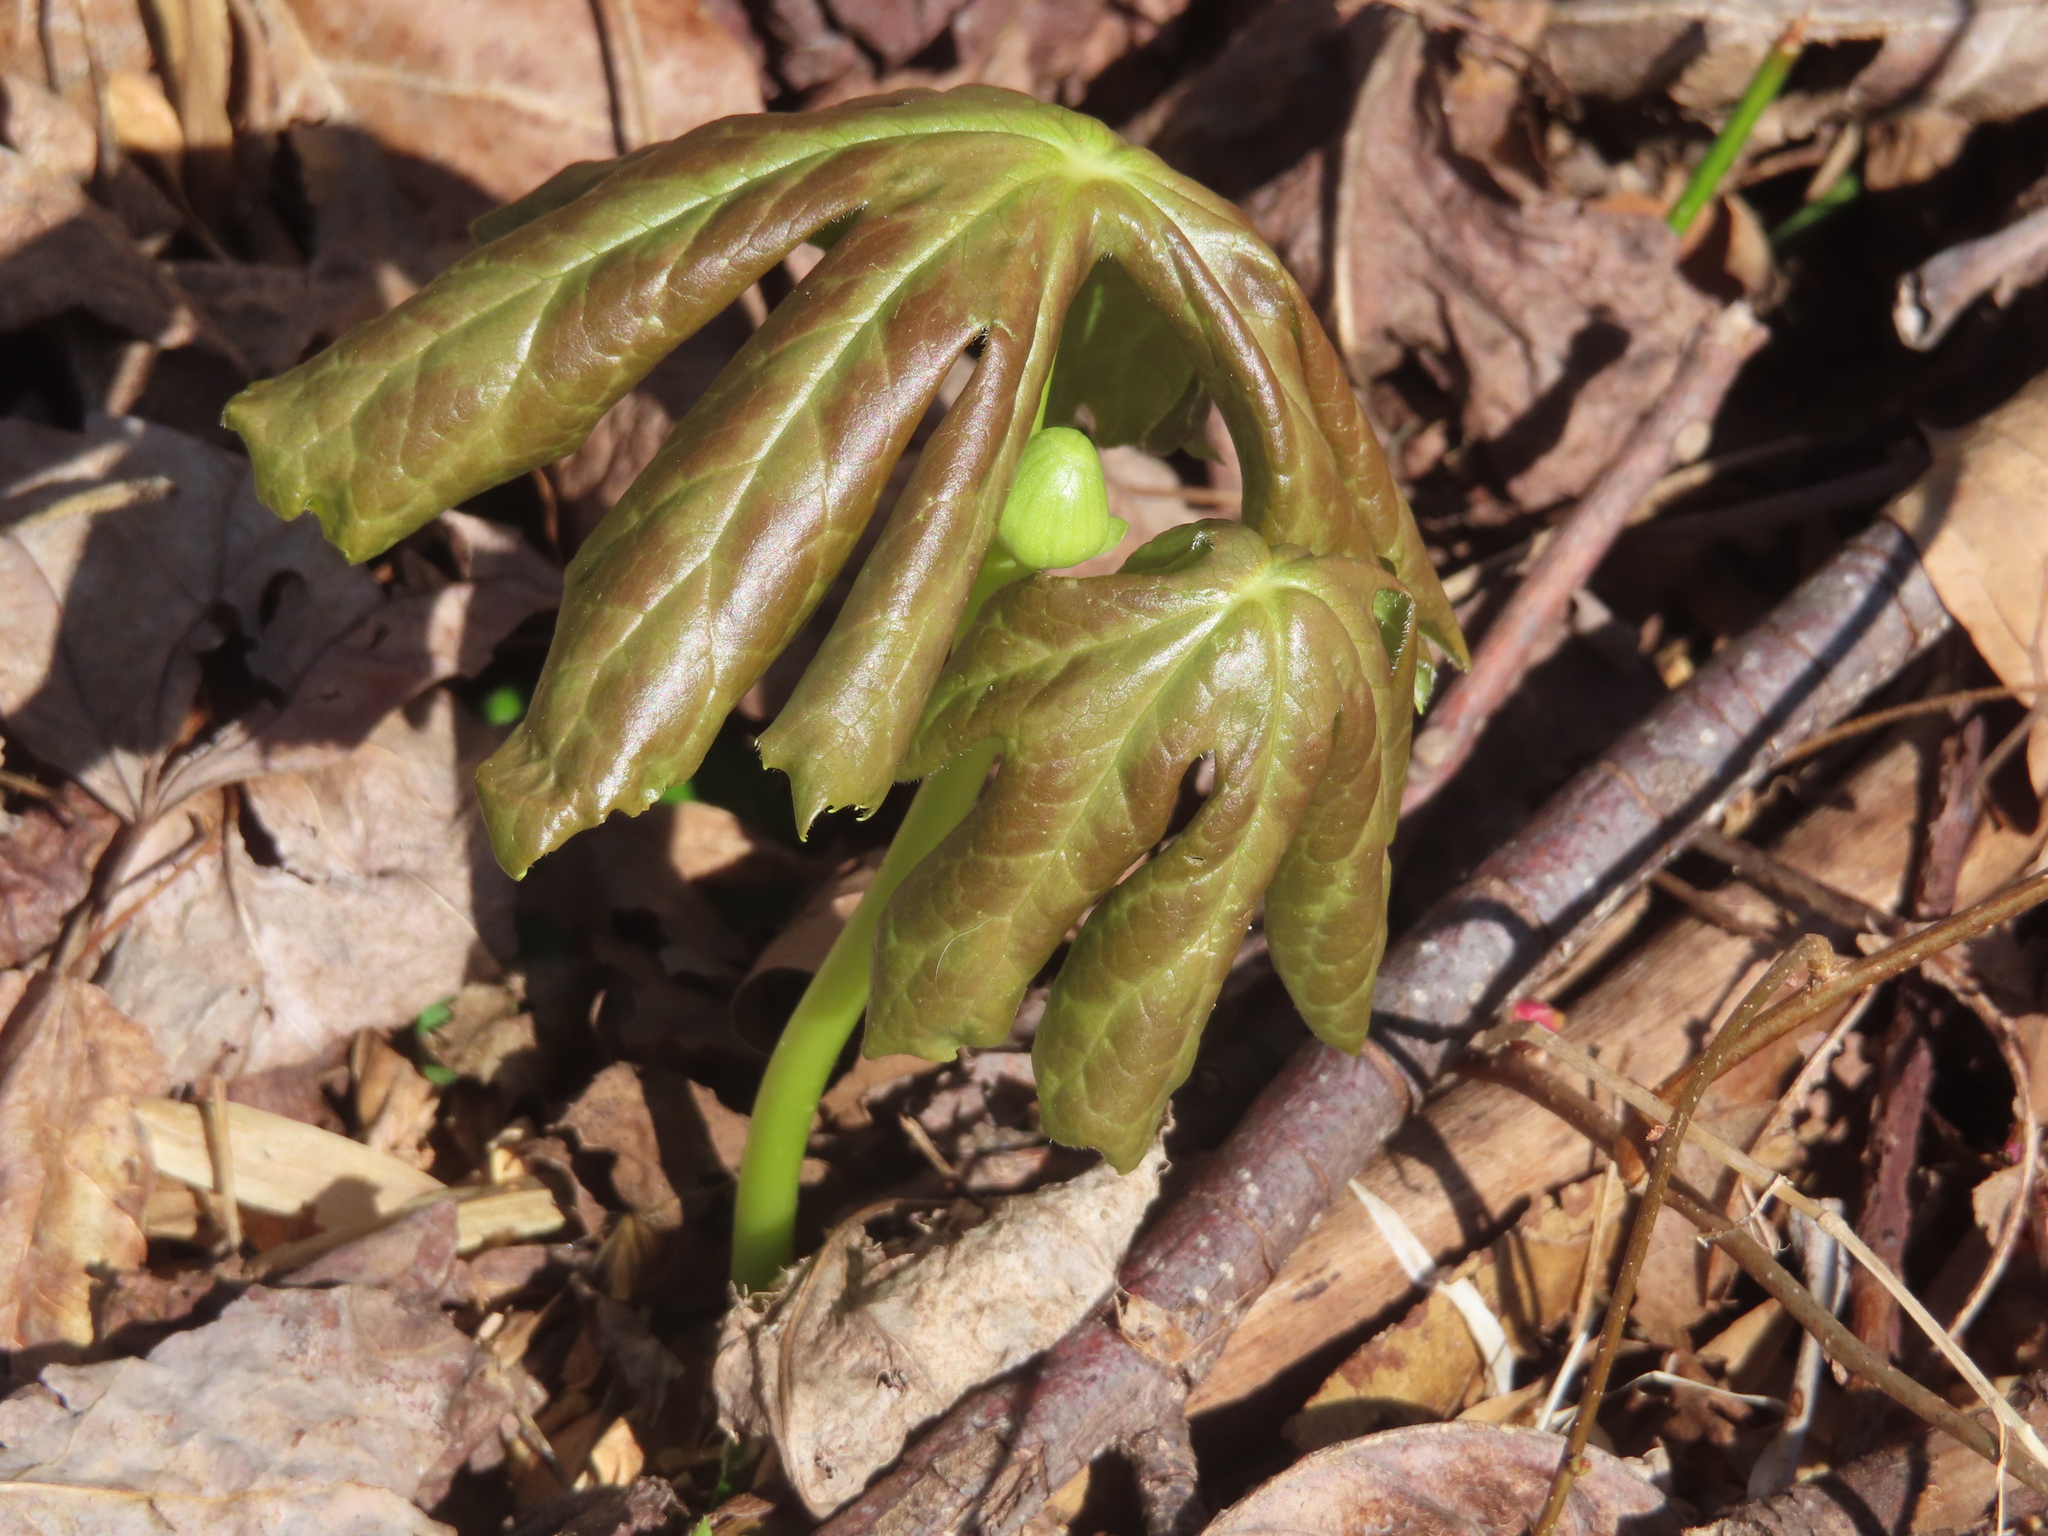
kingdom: Plantae
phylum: Tracheophyta
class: Magnoliopsida
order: Ranunculales
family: Berberidaceae
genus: Podophyllum
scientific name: Podophyllum peltatum
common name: Wild mandrake
